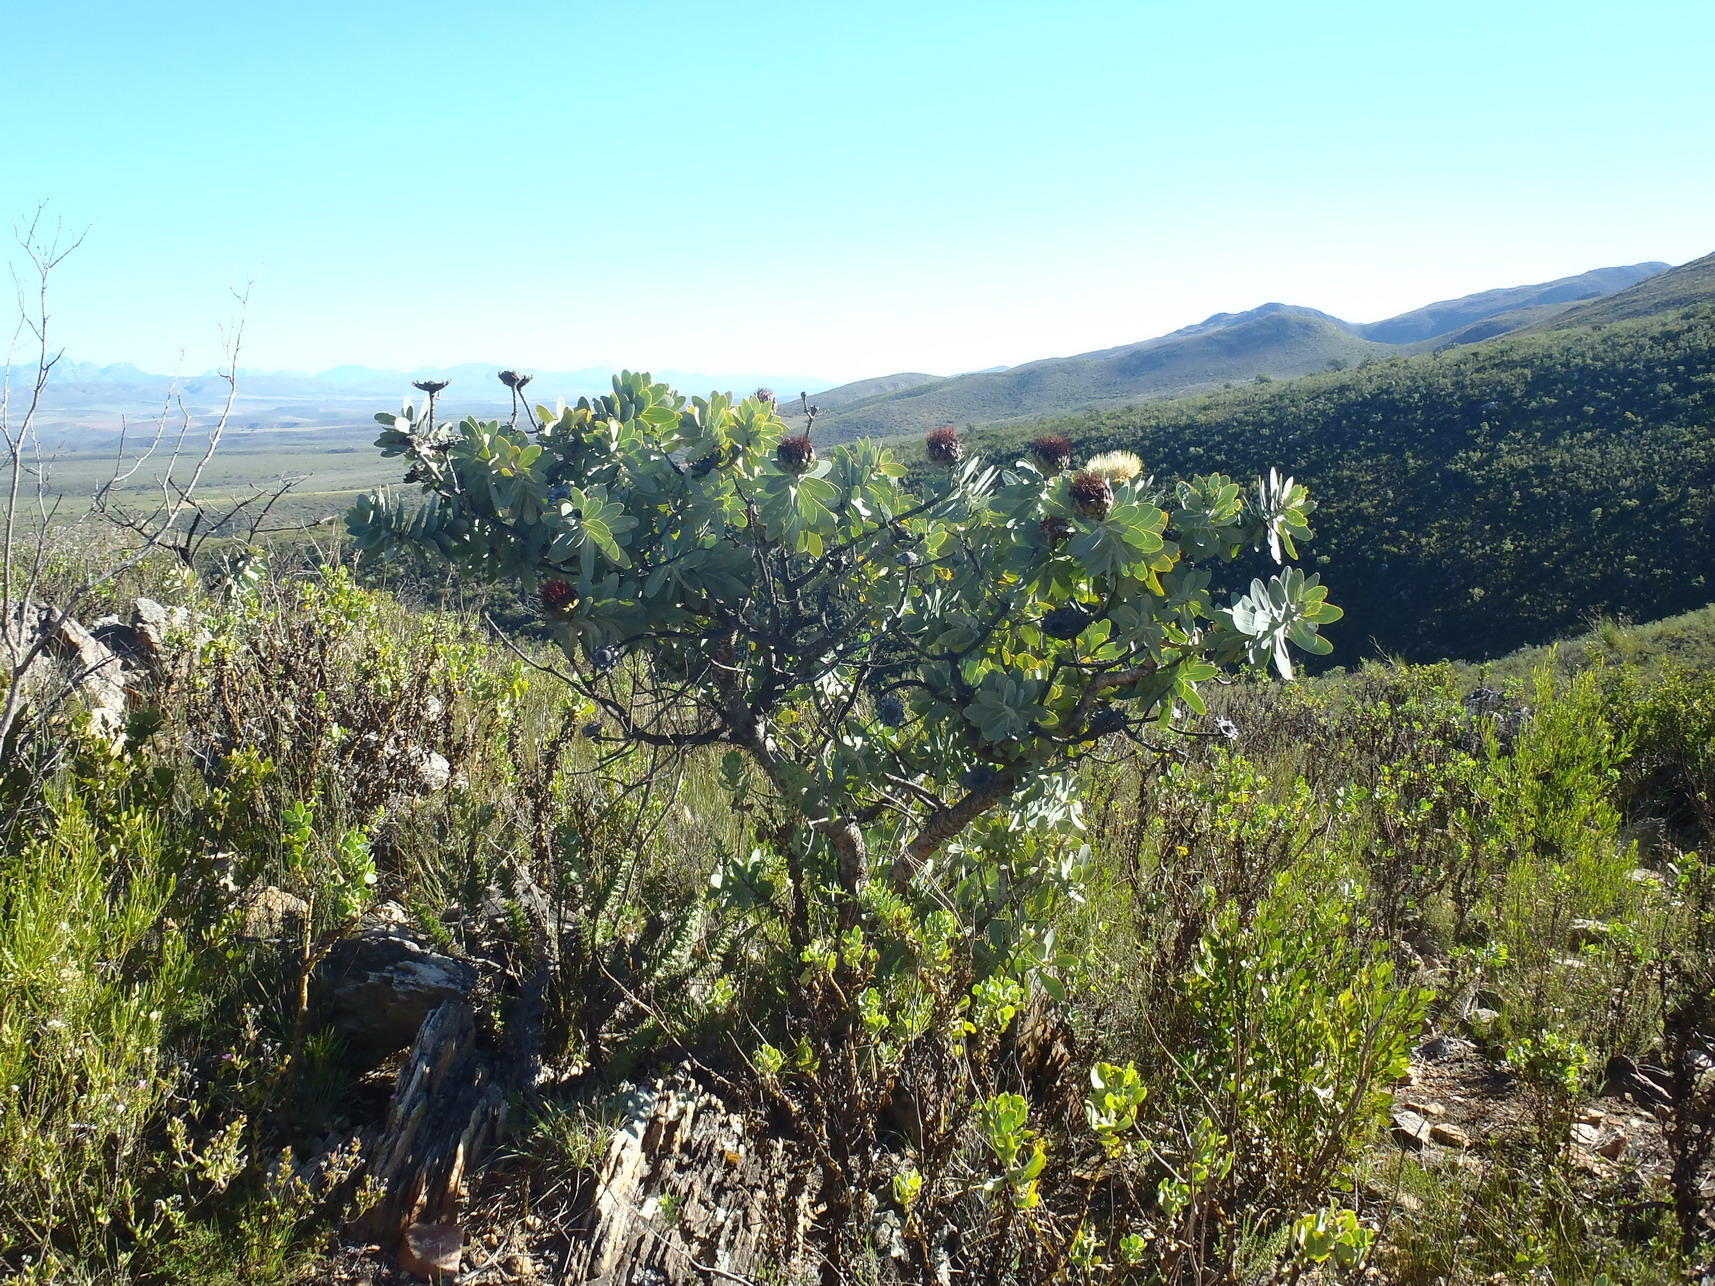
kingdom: Plantae
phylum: Tracheophyta
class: Magnoliopsida
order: Proteales
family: Proteaceae
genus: Protea
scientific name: Protea nitida
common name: Tree protea
